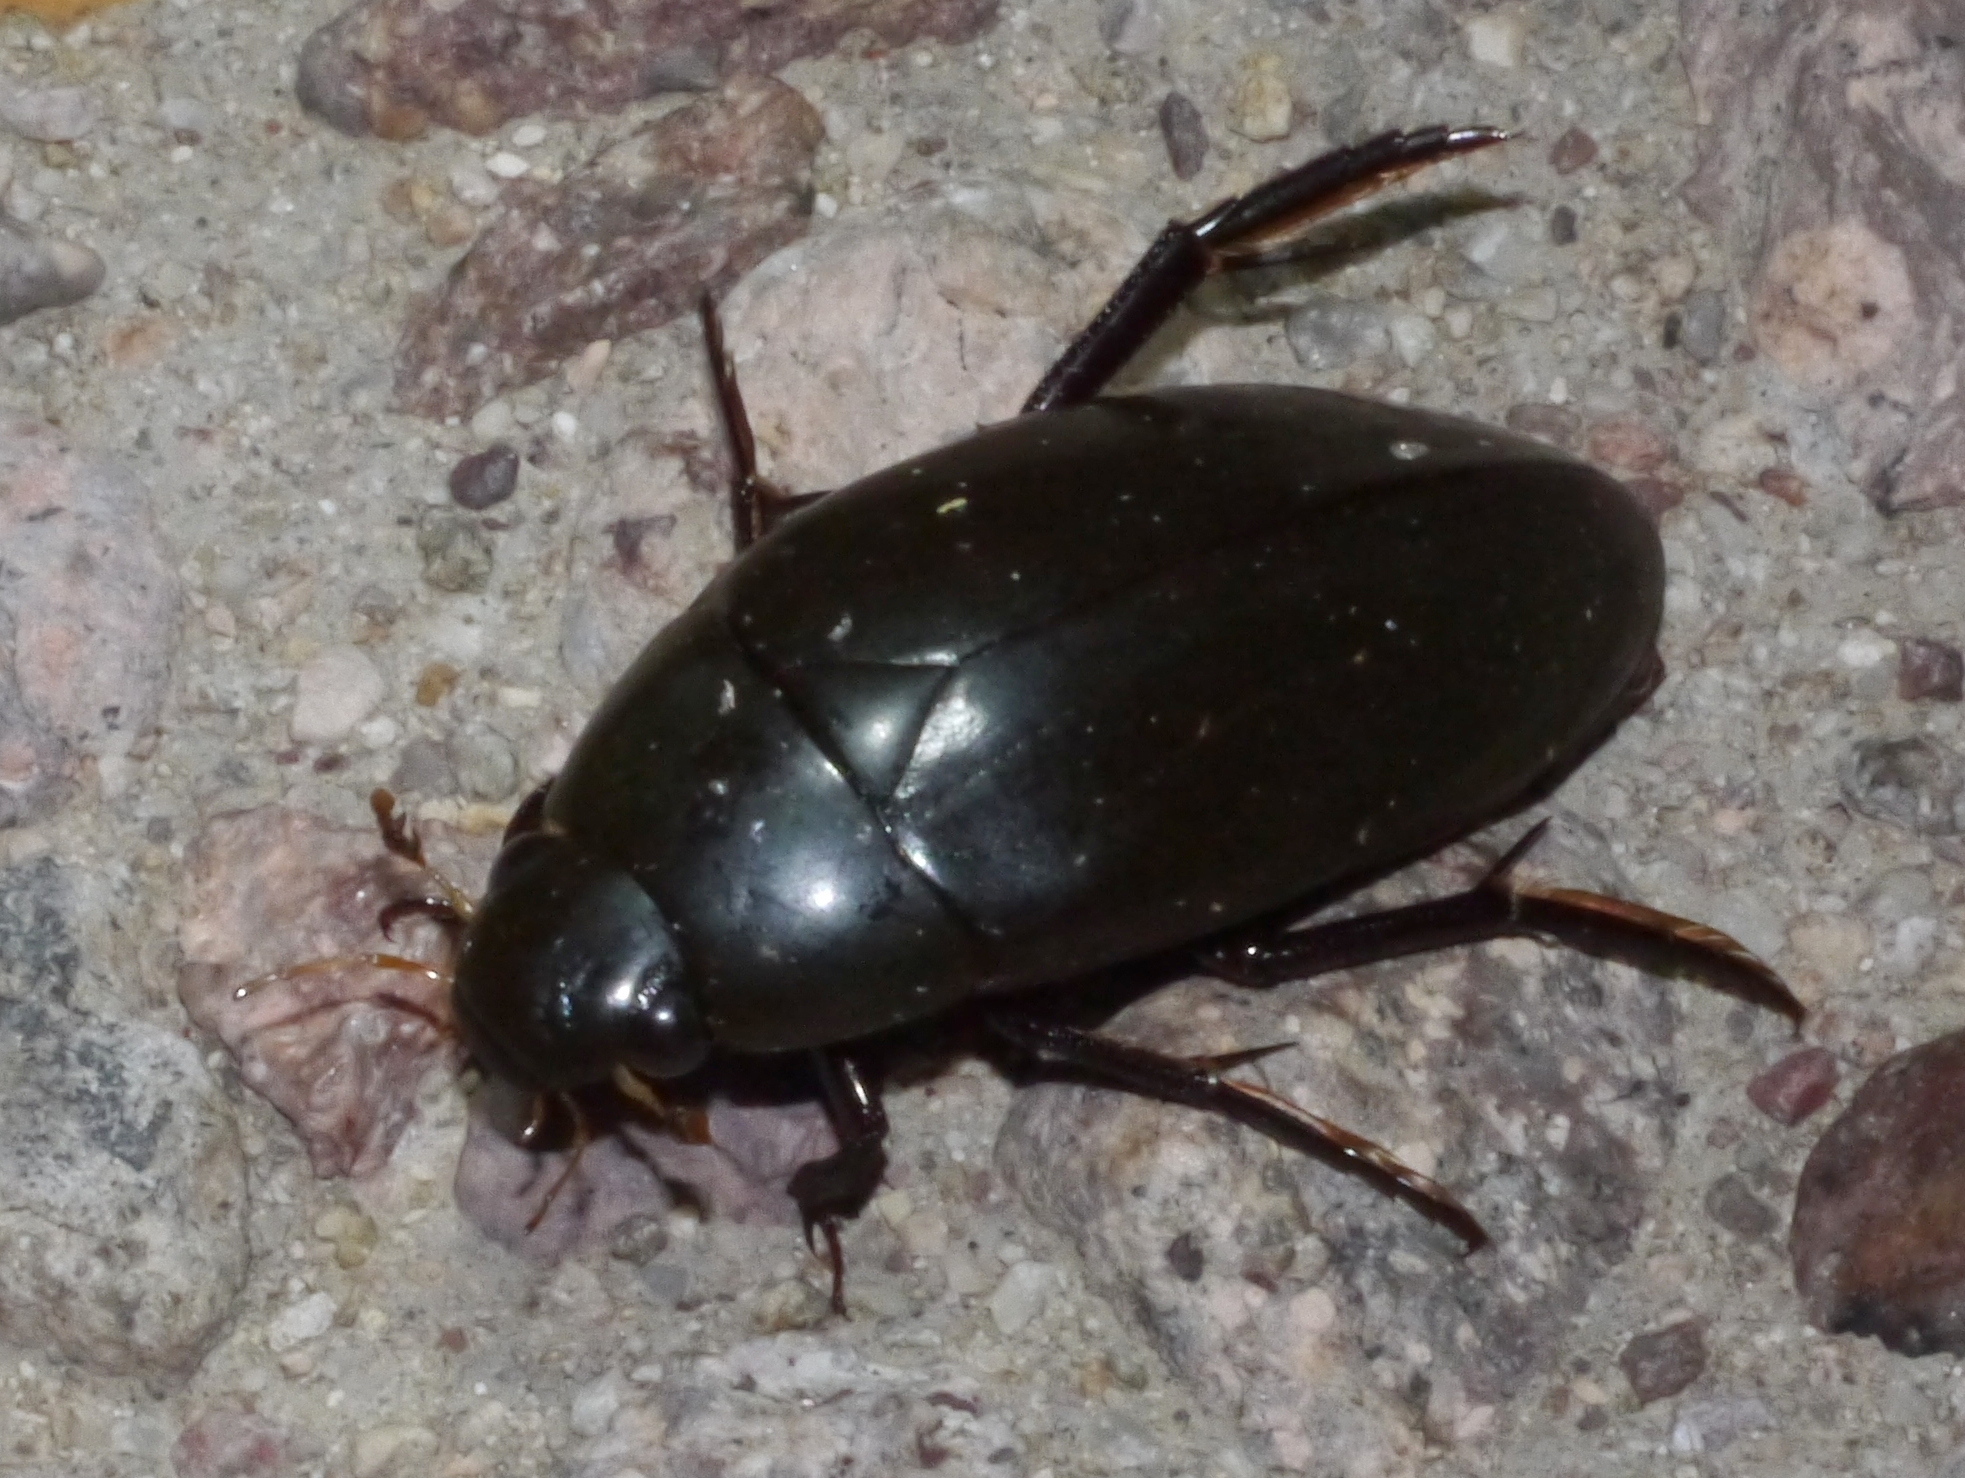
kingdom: Animalia
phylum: Arthropoda
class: Insecta
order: Coleoptera
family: Hydrophilidae
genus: Hydrophilus
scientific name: Hydrophilus triangularis
